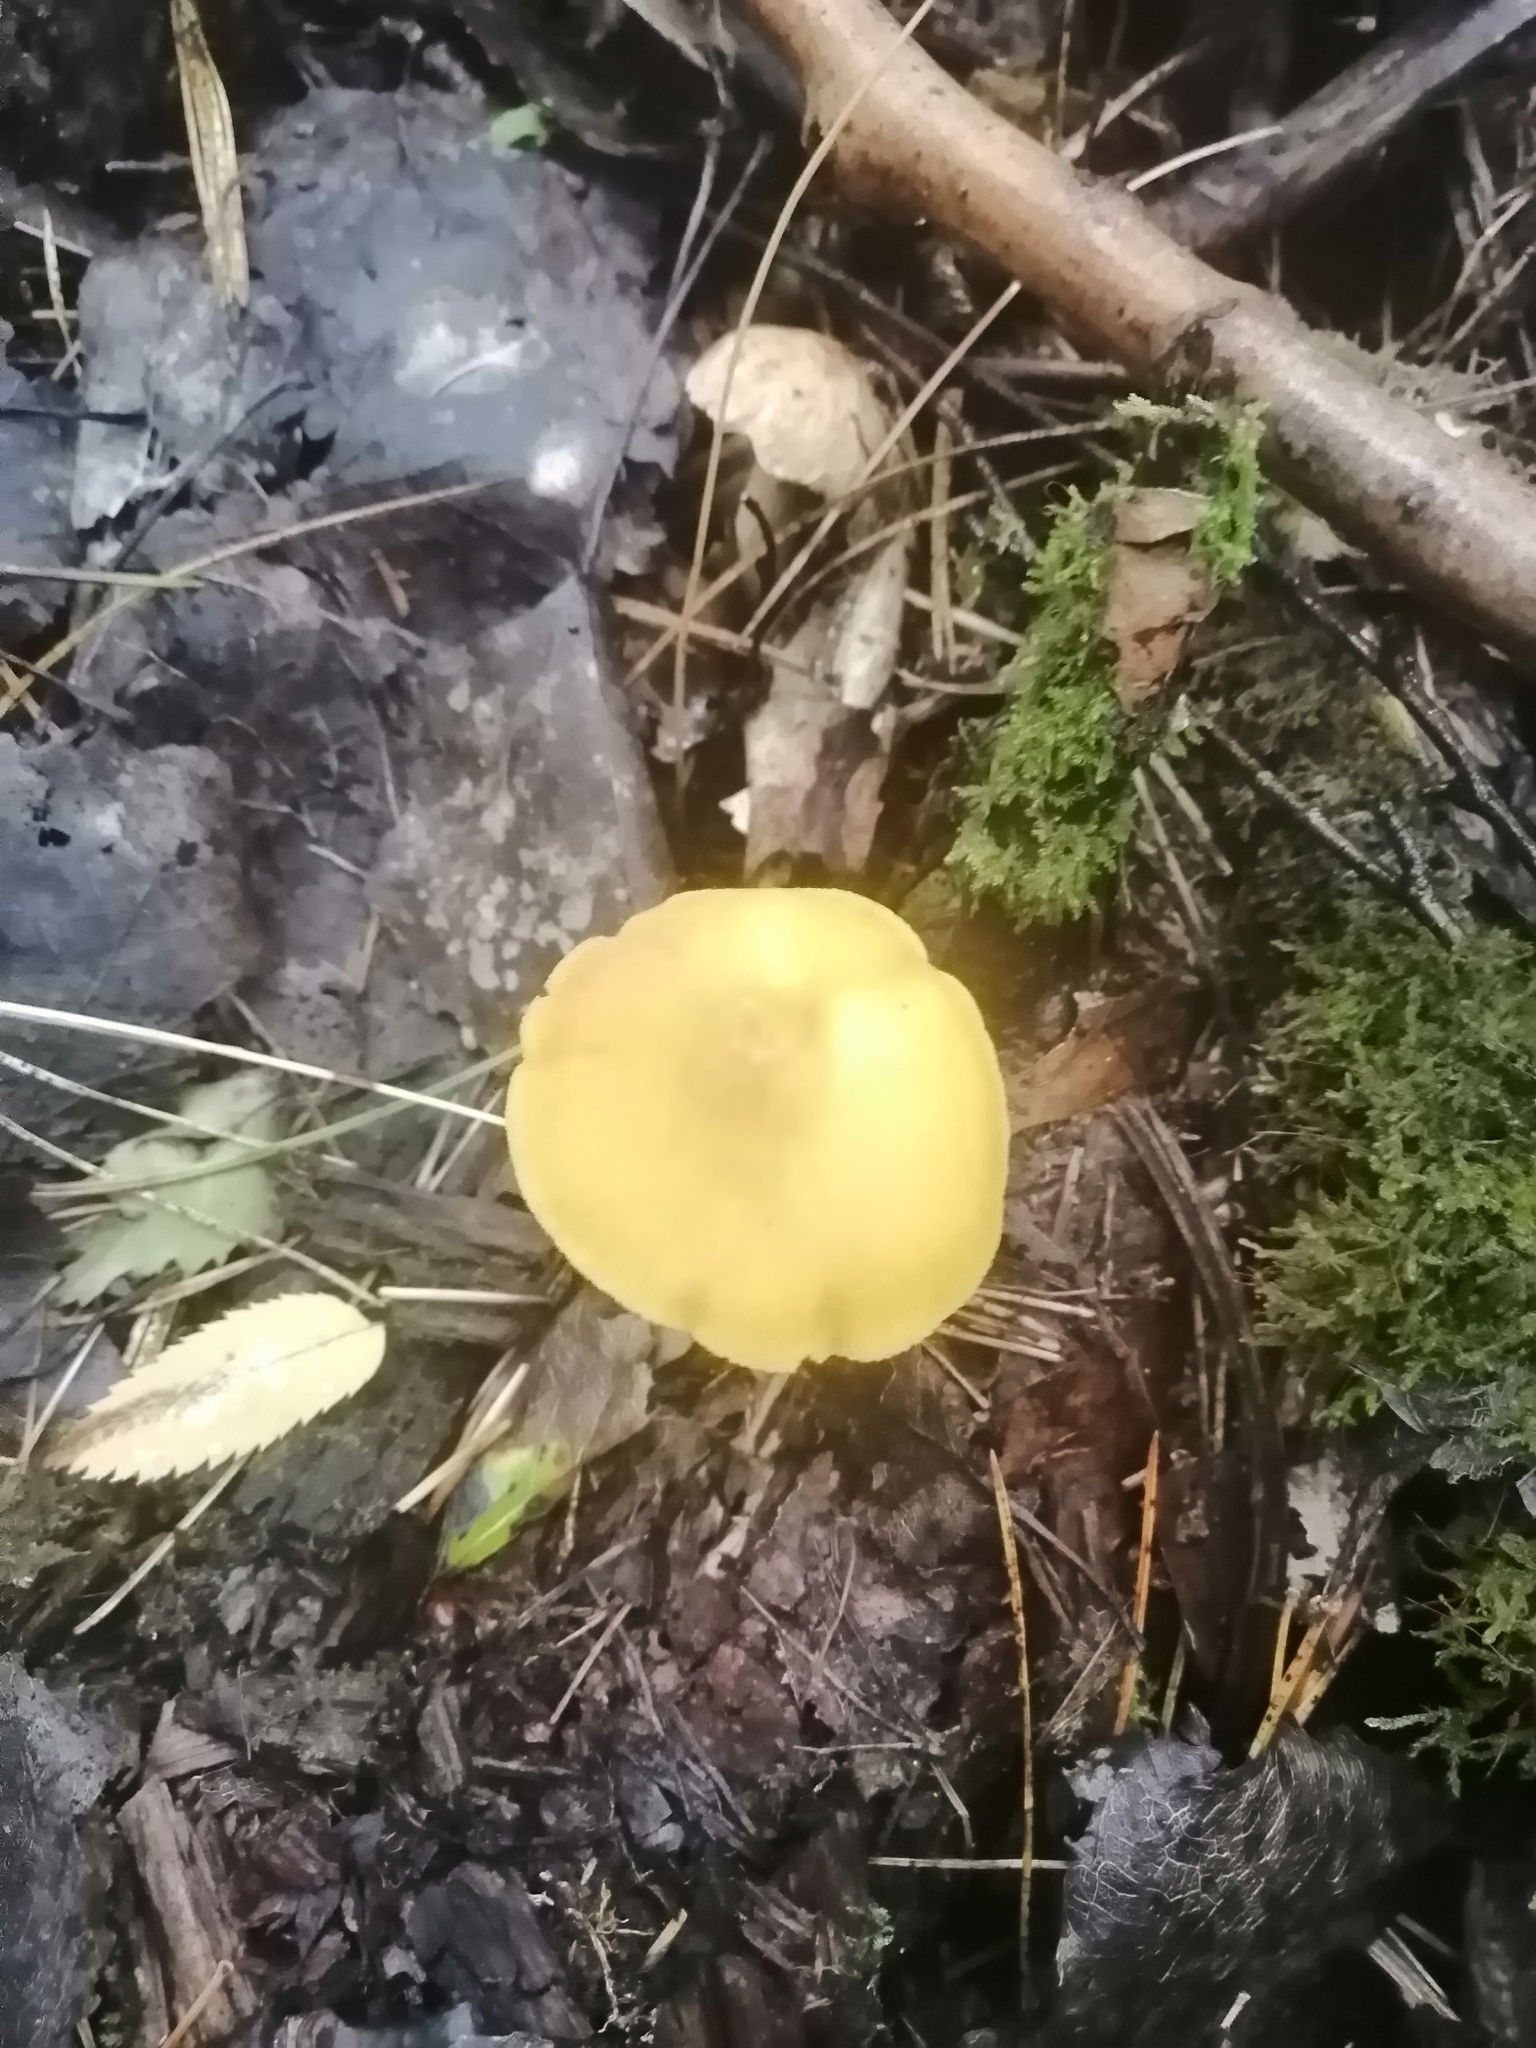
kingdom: Fungi
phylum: Basidiomycota
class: Agaricomycetes
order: Agaricales
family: Pluteaceae
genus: Pluteus
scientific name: Pluteus chrysophaeus
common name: Yellow shield
